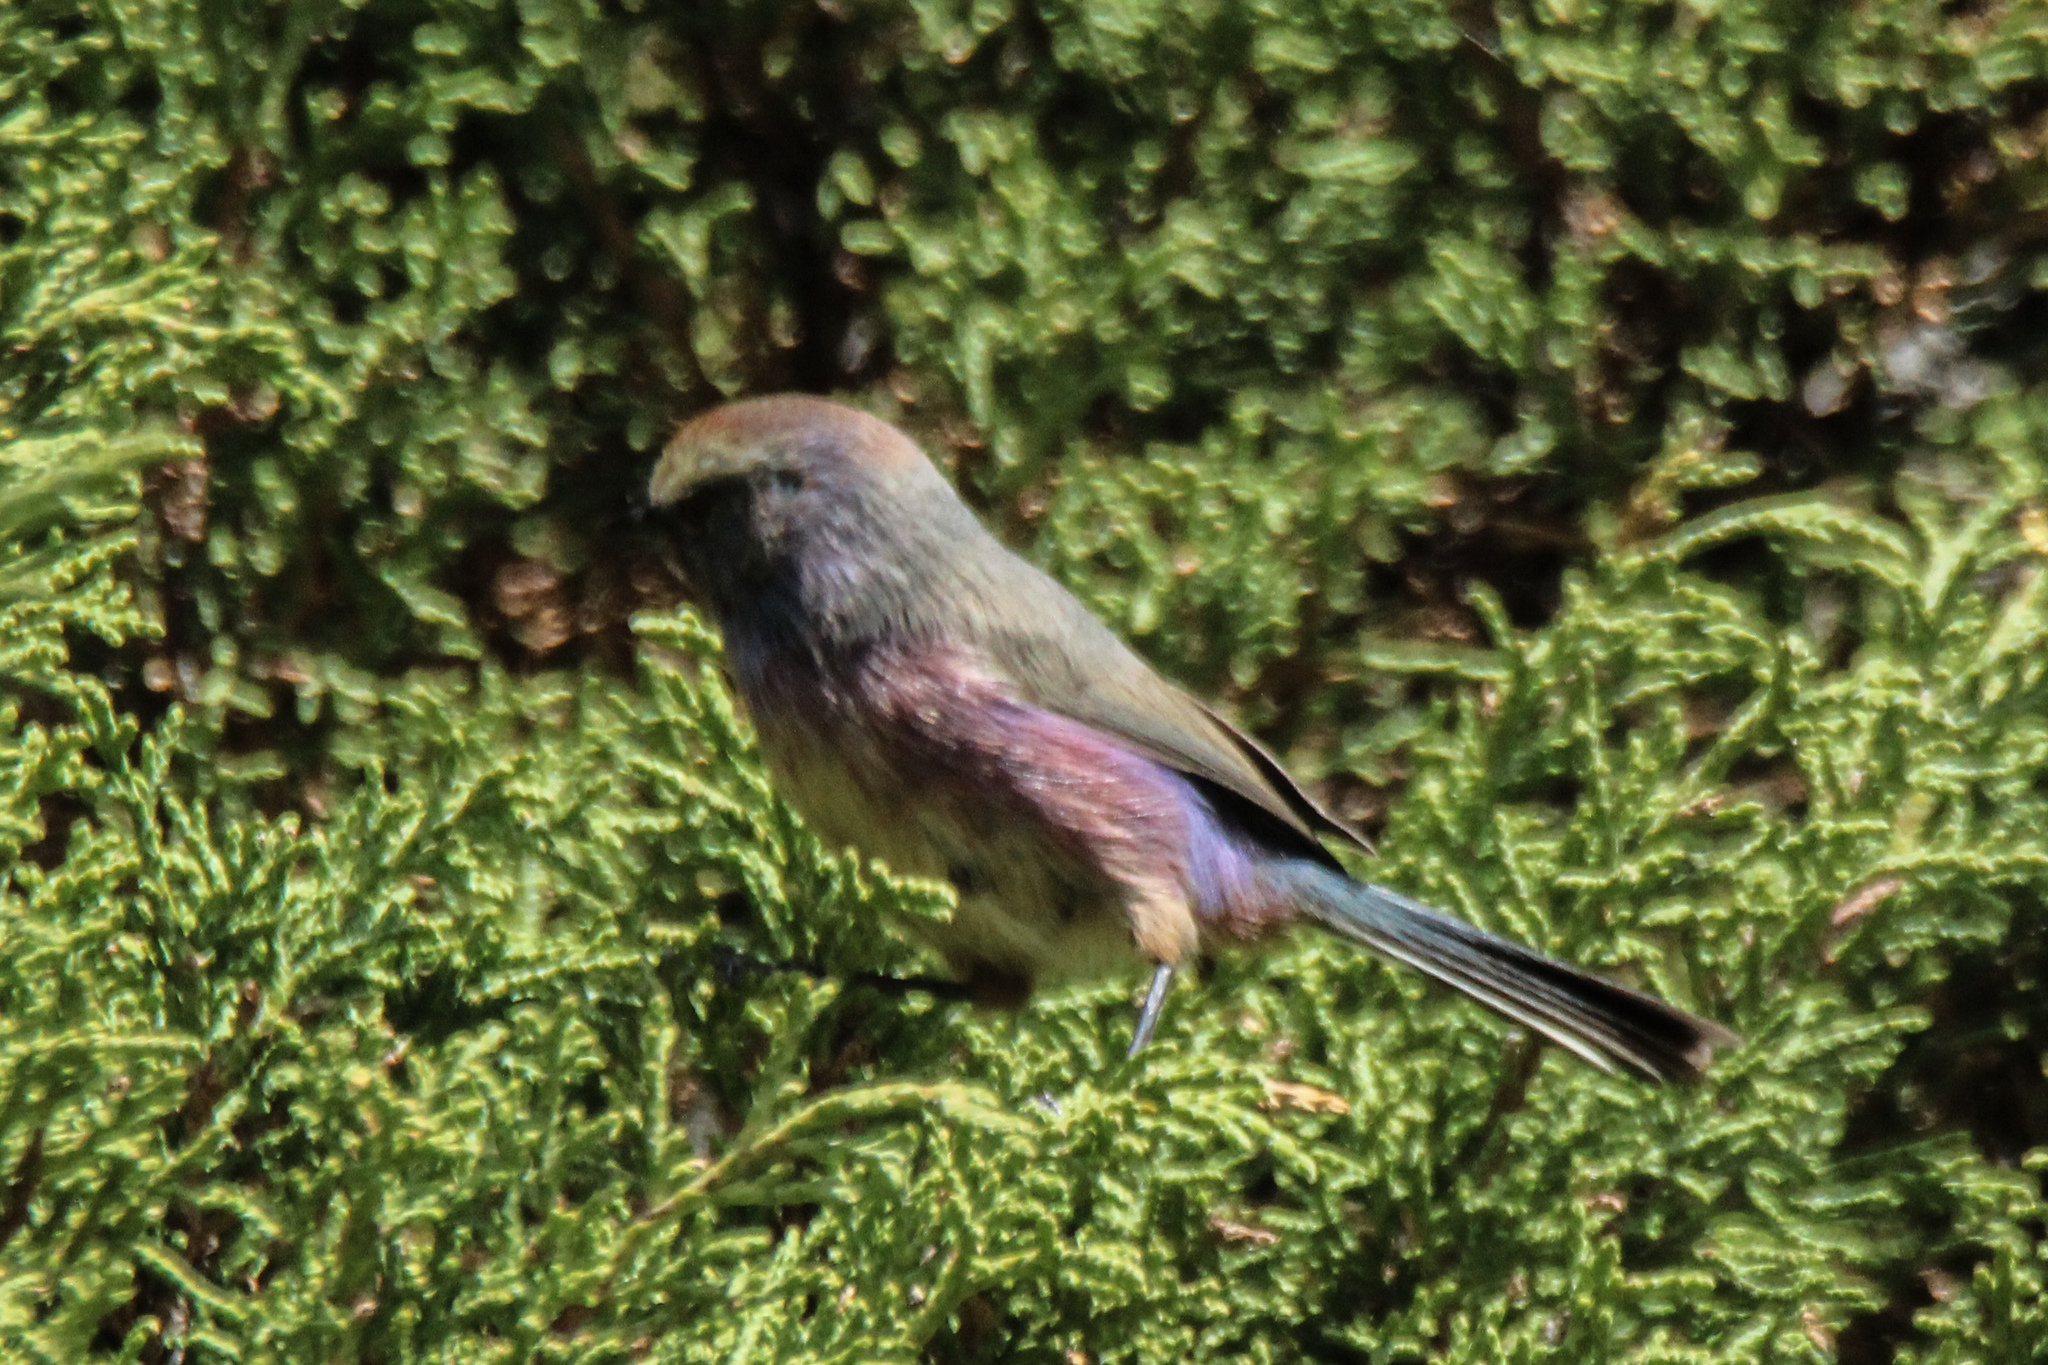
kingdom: Animalia
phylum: Chordata
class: Aves
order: Passeriformes
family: Aegithalidae
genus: Leptopoecile
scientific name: Leptopoecile sophiae
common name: White-browed tit-warbler
